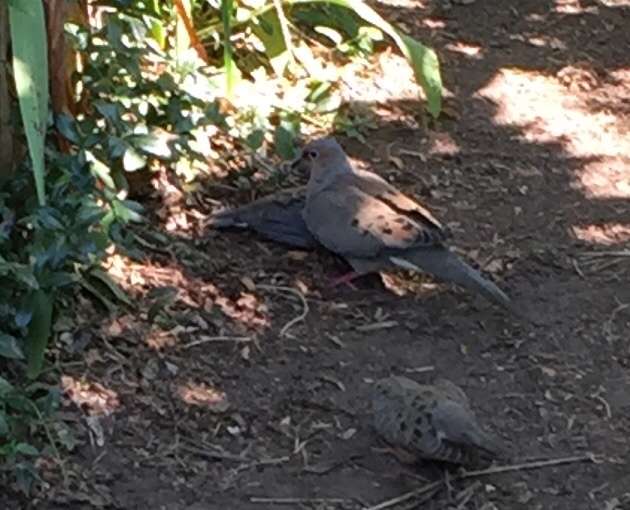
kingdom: Animalia
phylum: Chordata
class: Aves
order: Columbiformes
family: Columbidae
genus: Zenaida
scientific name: Zenaida macroura
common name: Mourning dove
